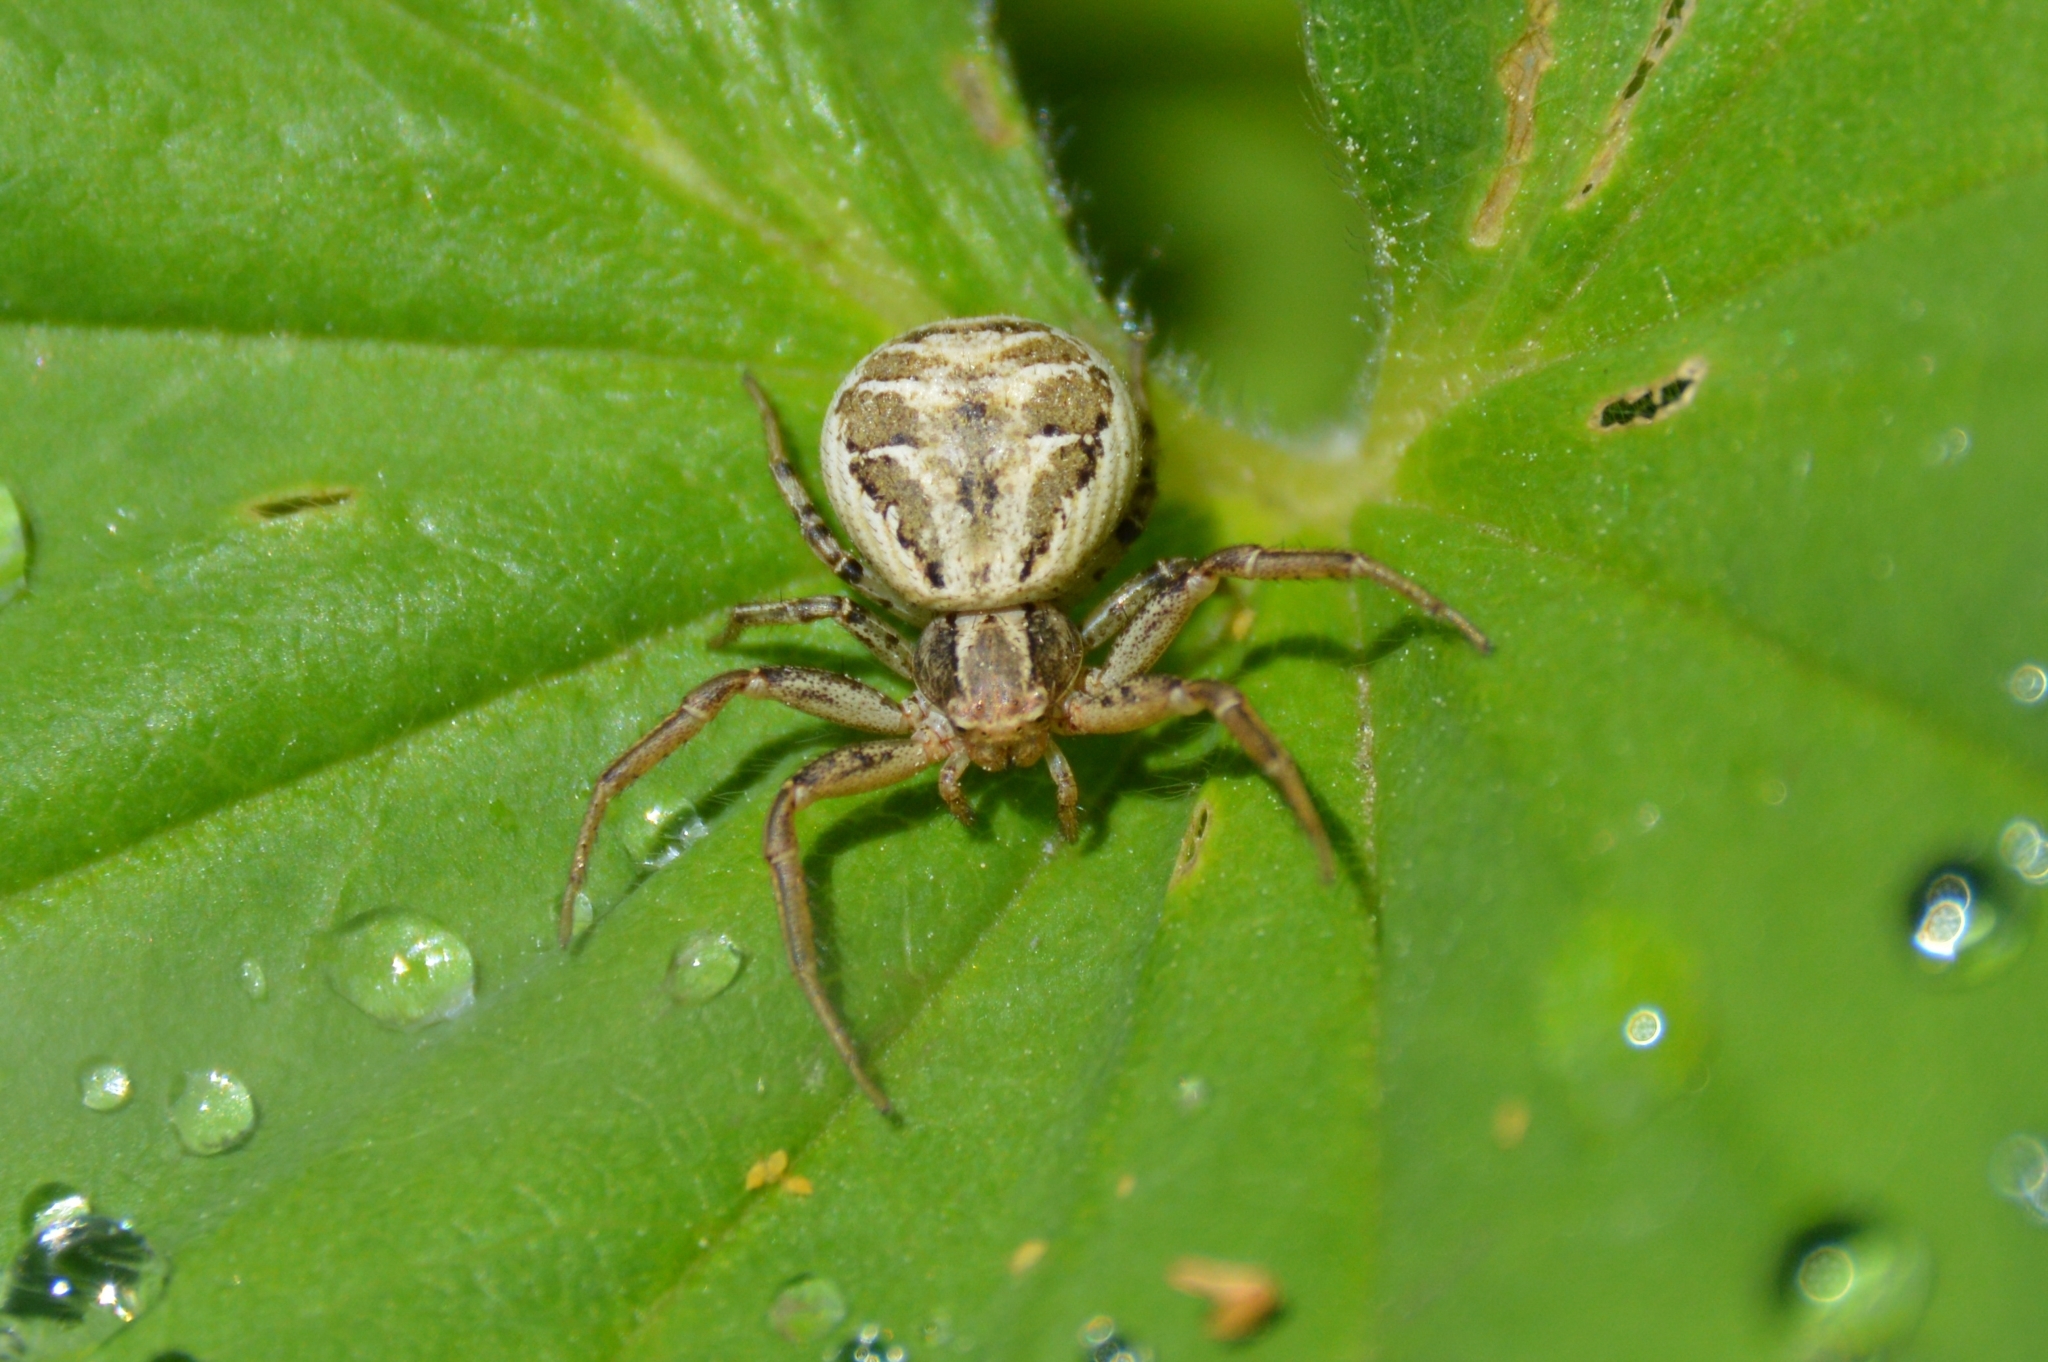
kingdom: Animalia
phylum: Arthropoda
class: Arachnida
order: Araneae
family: Thomisidae
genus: Xysticus
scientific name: Xysticus
